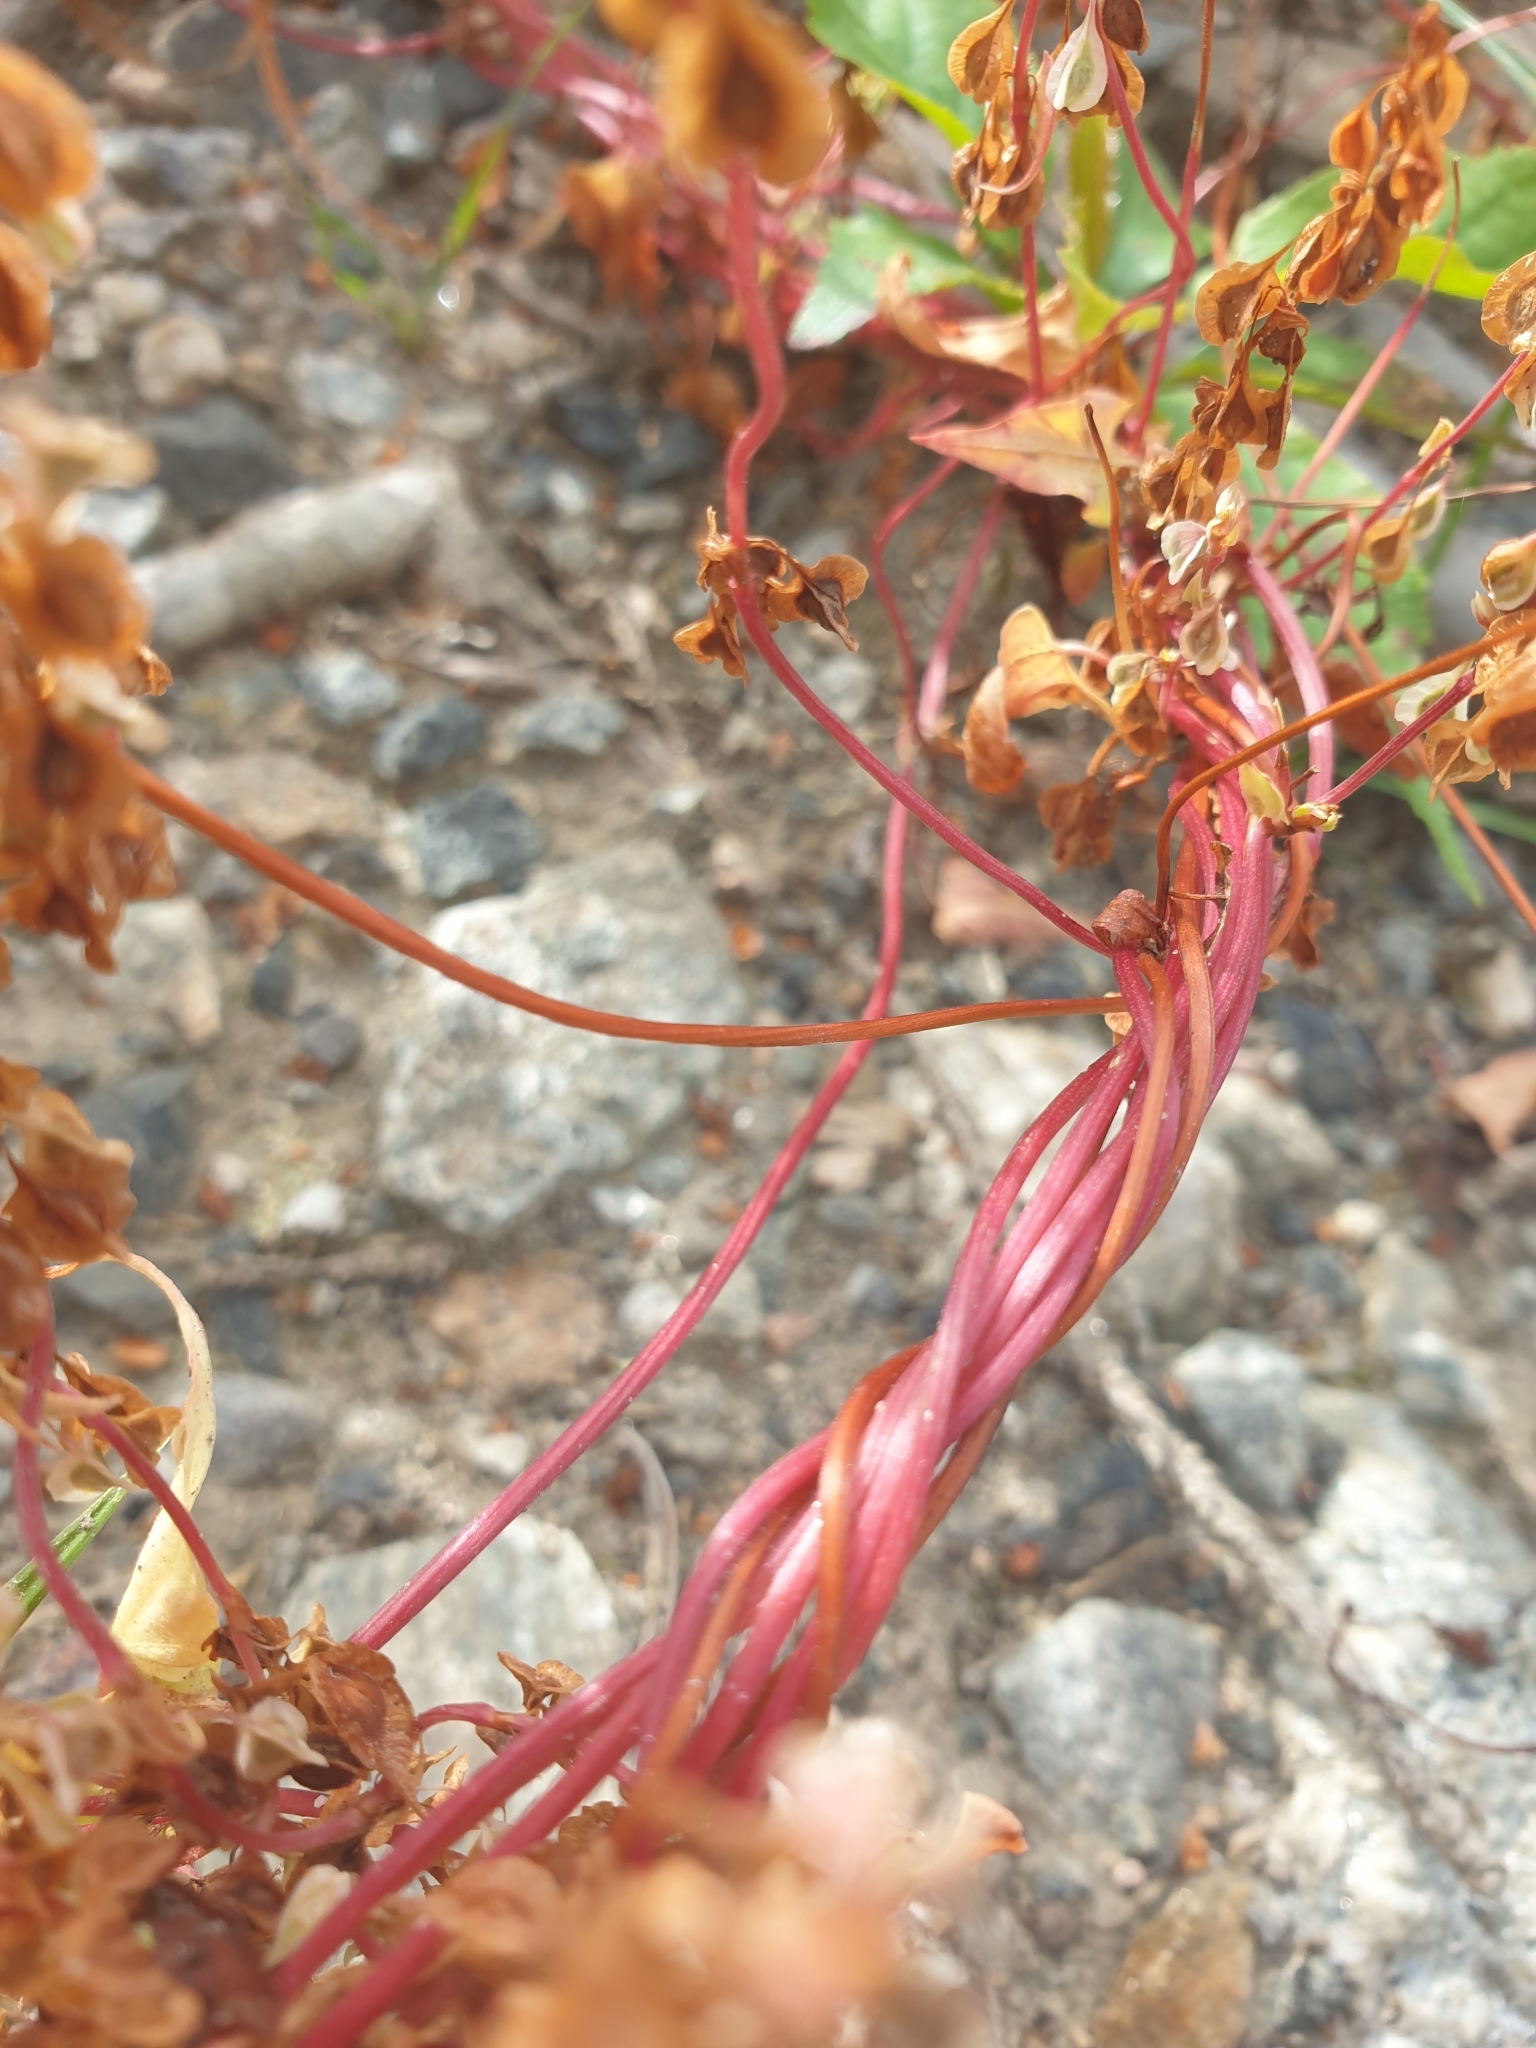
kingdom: Plantae
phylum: Tracheophyta
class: Magnoliopsida
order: Caryophyllales
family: Polygonaceae
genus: Fallopia
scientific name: Fallopia dumetorum
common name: Copse-bindweed
